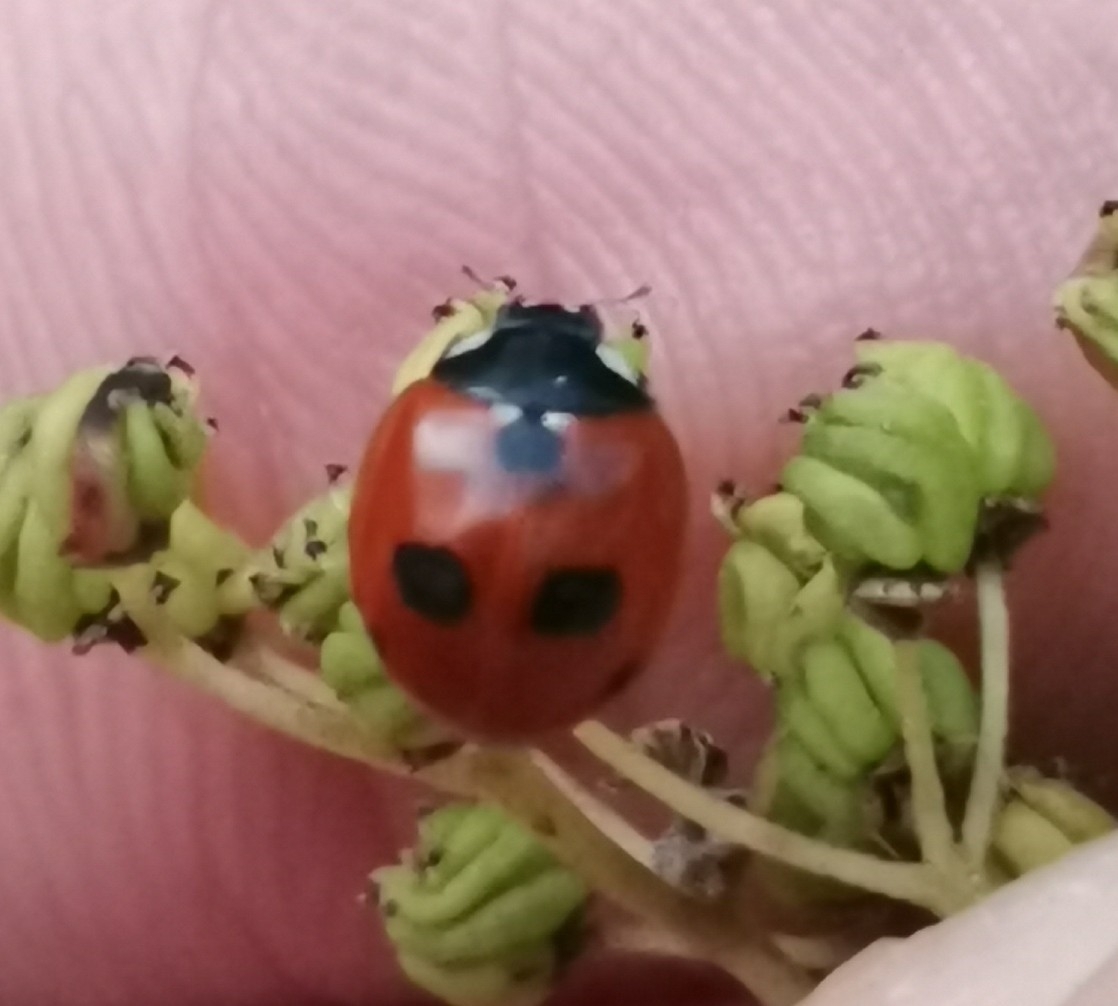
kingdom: Animalia
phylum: Arthropoda
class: Insecta
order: Coleoptera
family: Coccinellidae
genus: Coccinella
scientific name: Coccinella quinquepunctata
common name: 5-spot ladybird
